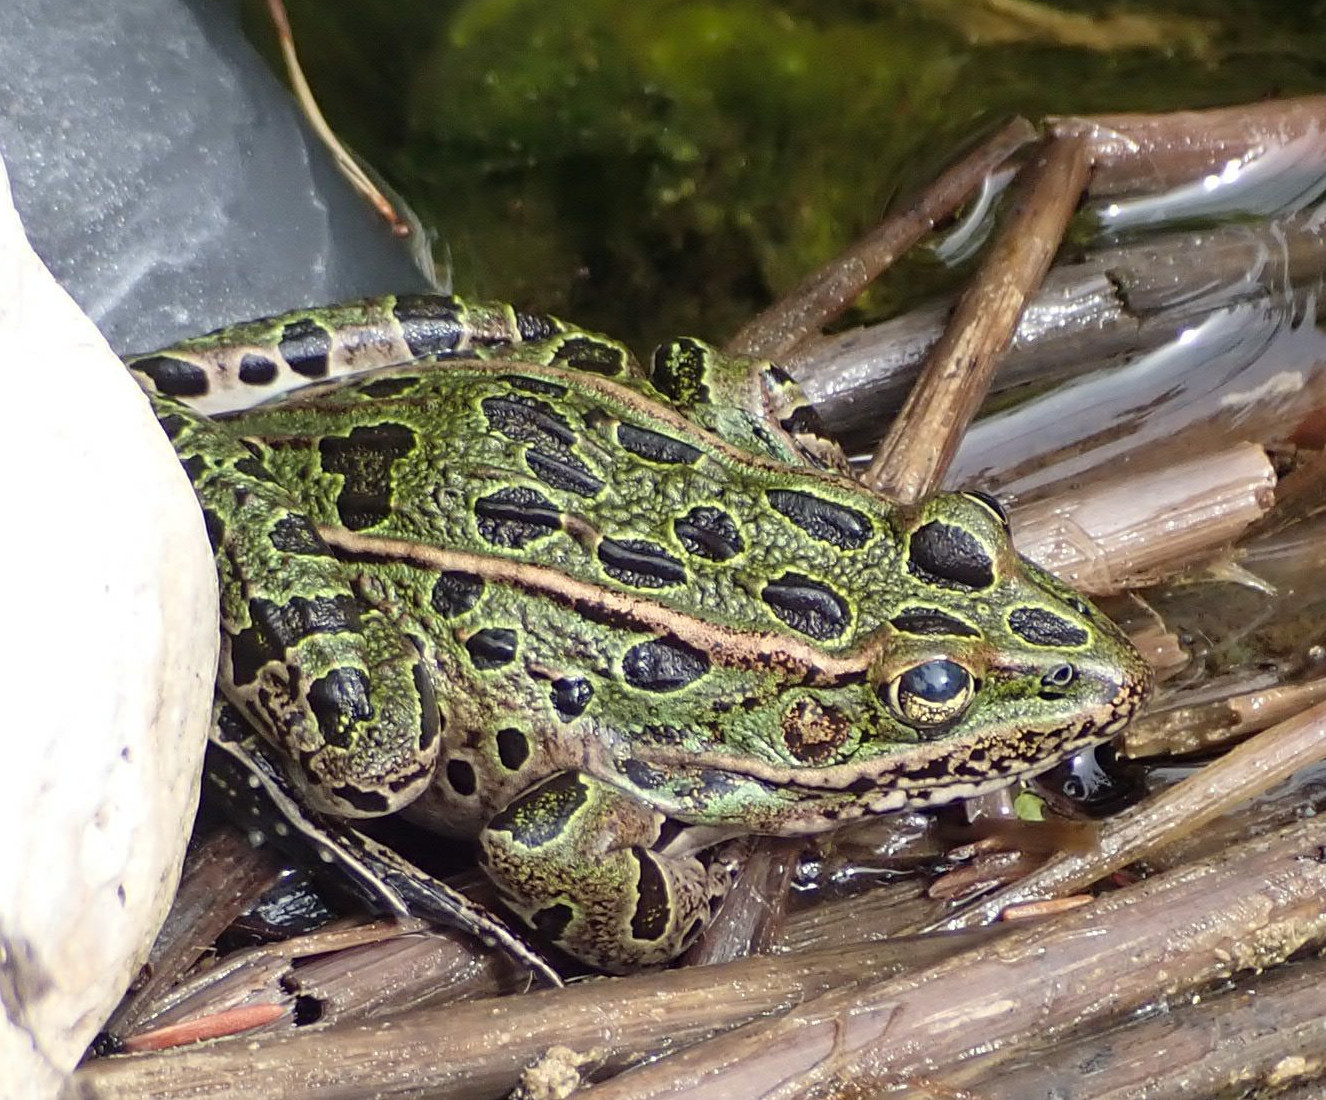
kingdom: Animalia
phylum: Chordata
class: Amphibia
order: Anura
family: Ranidae
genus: Lithobates
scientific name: Lithobates pipiens
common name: Northern leopard frog
